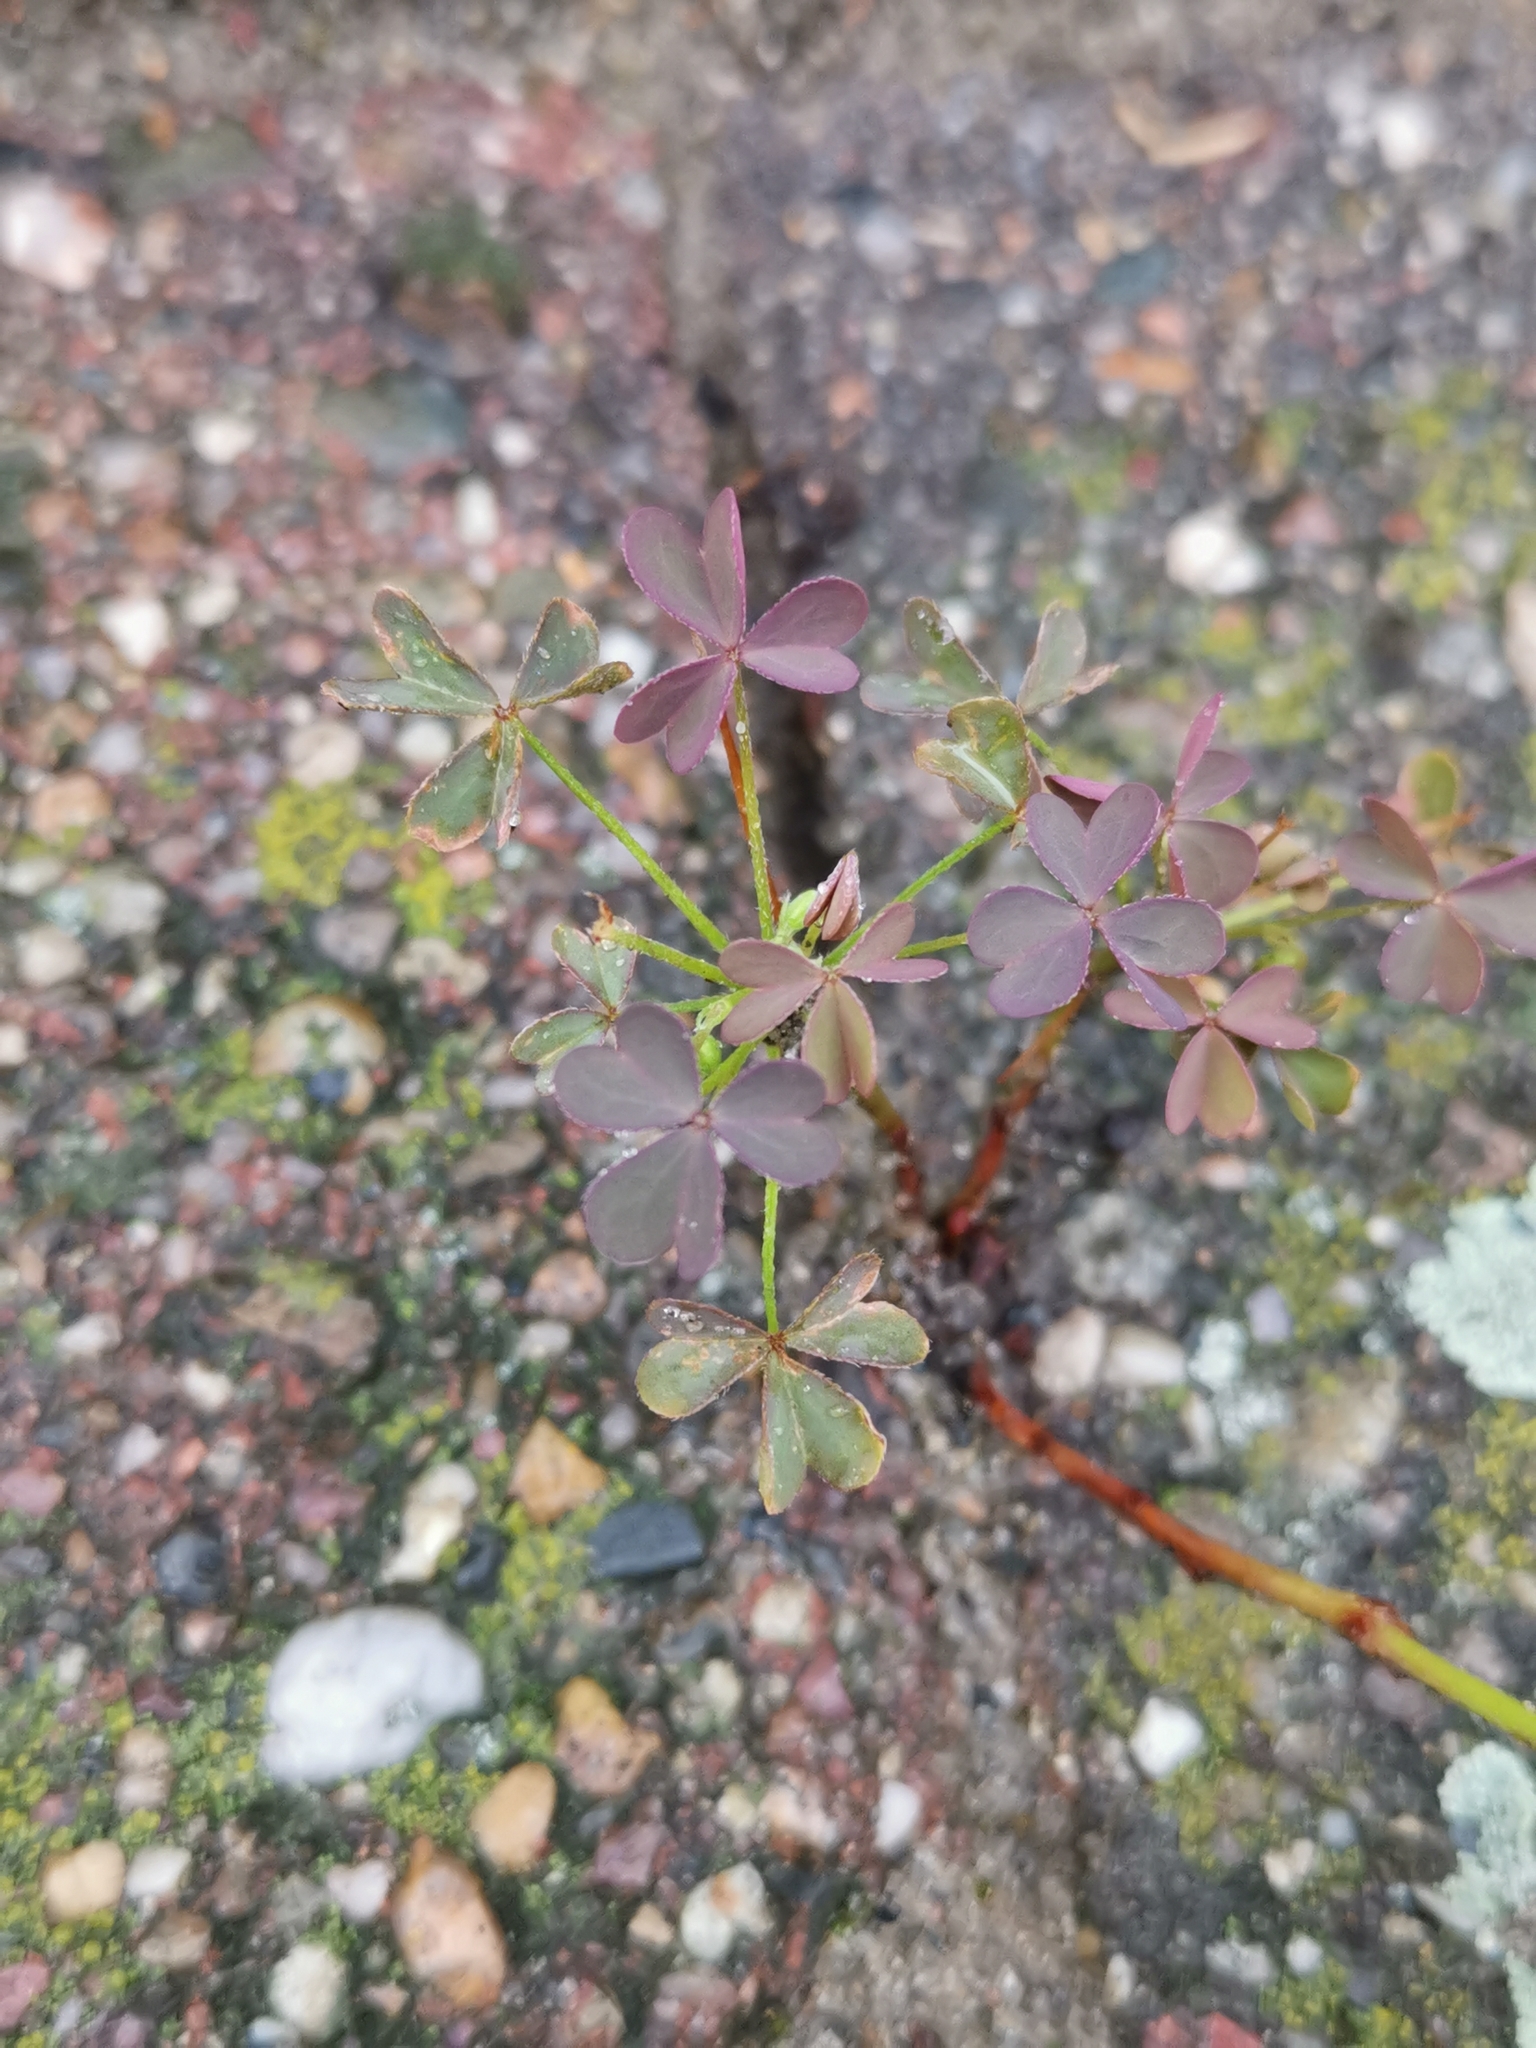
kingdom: Plantae
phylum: Tracheophyta
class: Magnoliopsida
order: Oxalidales
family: Oxalidaceae
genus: Oxalis
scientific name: Oxalis corniculata
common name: Procumbent yellow-sorrel
